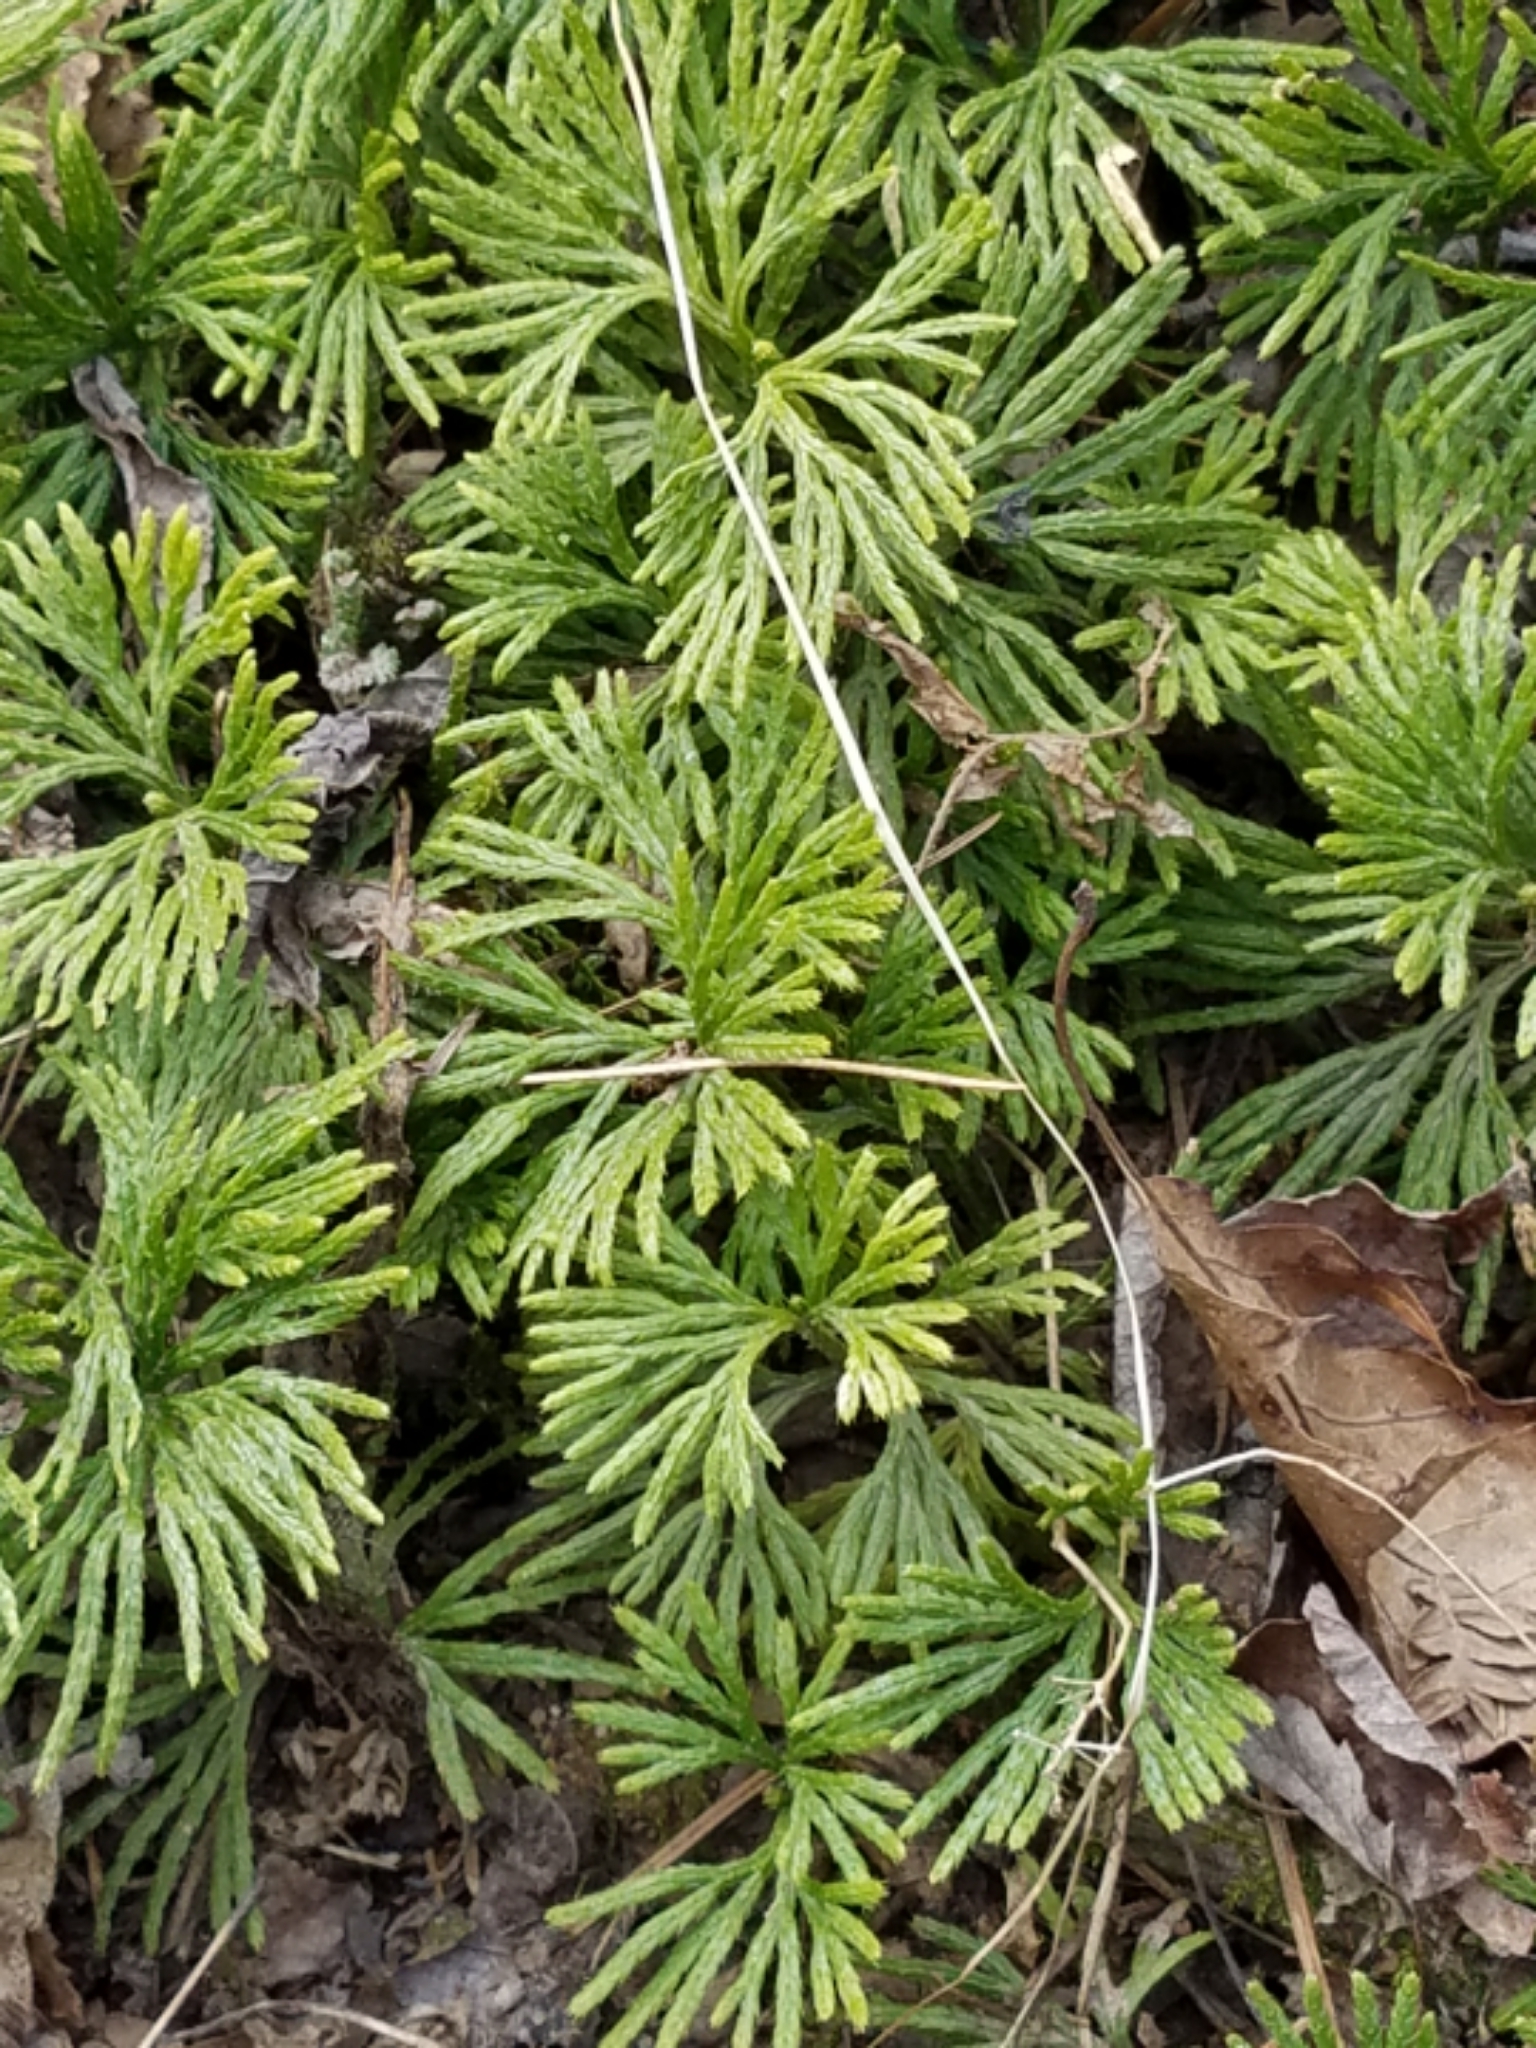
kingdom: Plantae
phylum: Tracheophyta
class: Lycopodiopsida
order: Lycopodiales
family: Lycopodiaceae
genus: Diphasiastrum
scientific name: Diphasiastrum digitatum
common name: Southern running-pine
